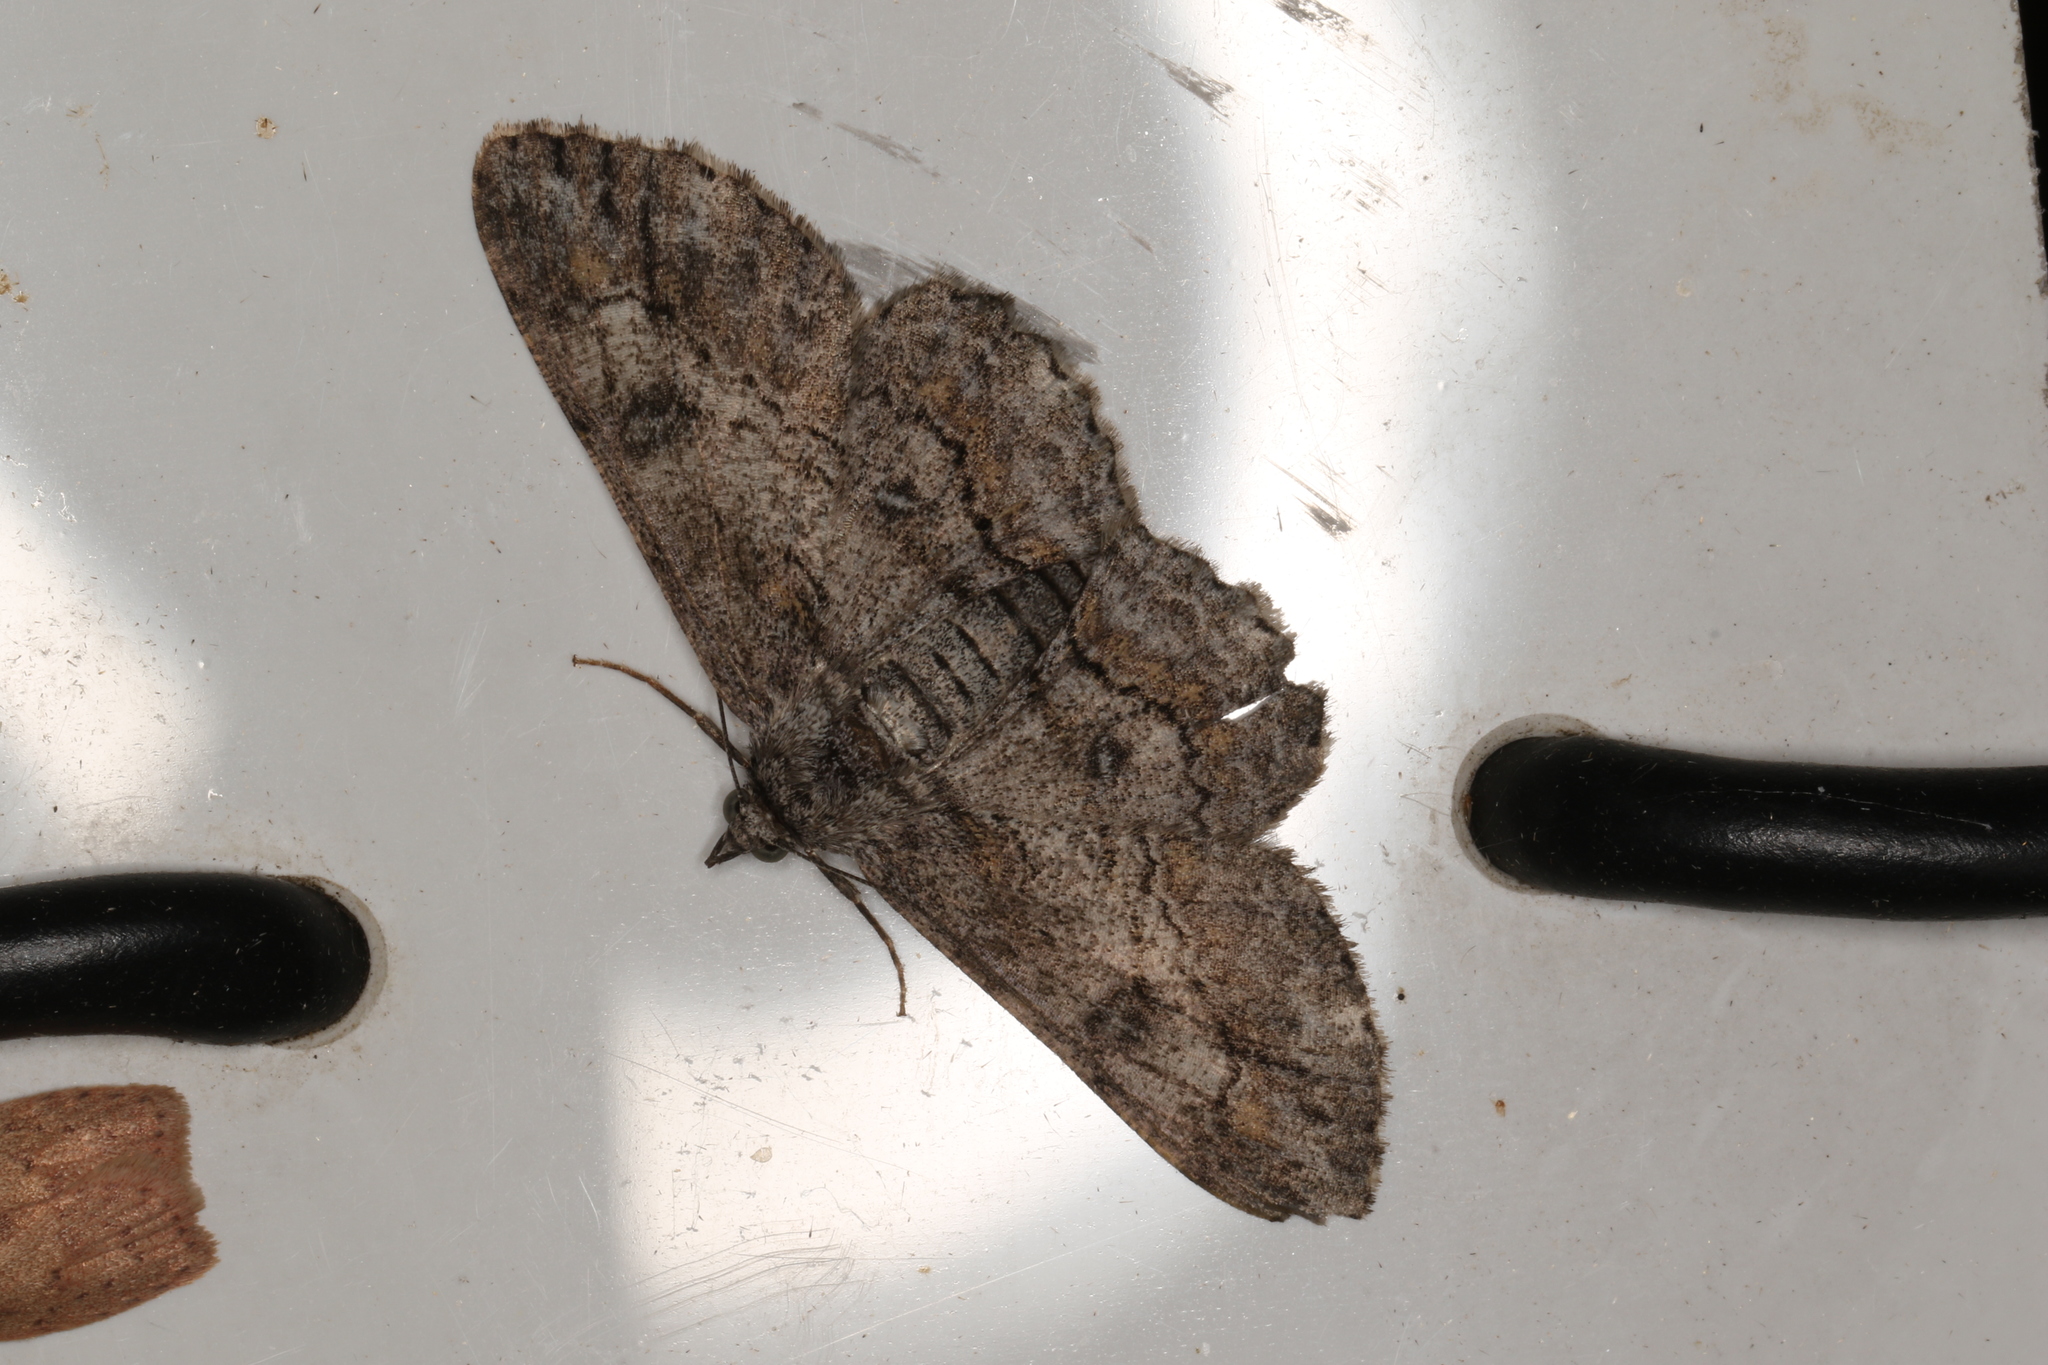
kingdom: Animalia
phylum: Arthropoda
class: Insecta
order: Lepidoptera
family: Geometridae
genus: Cleora
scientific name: Cleora injectaria
